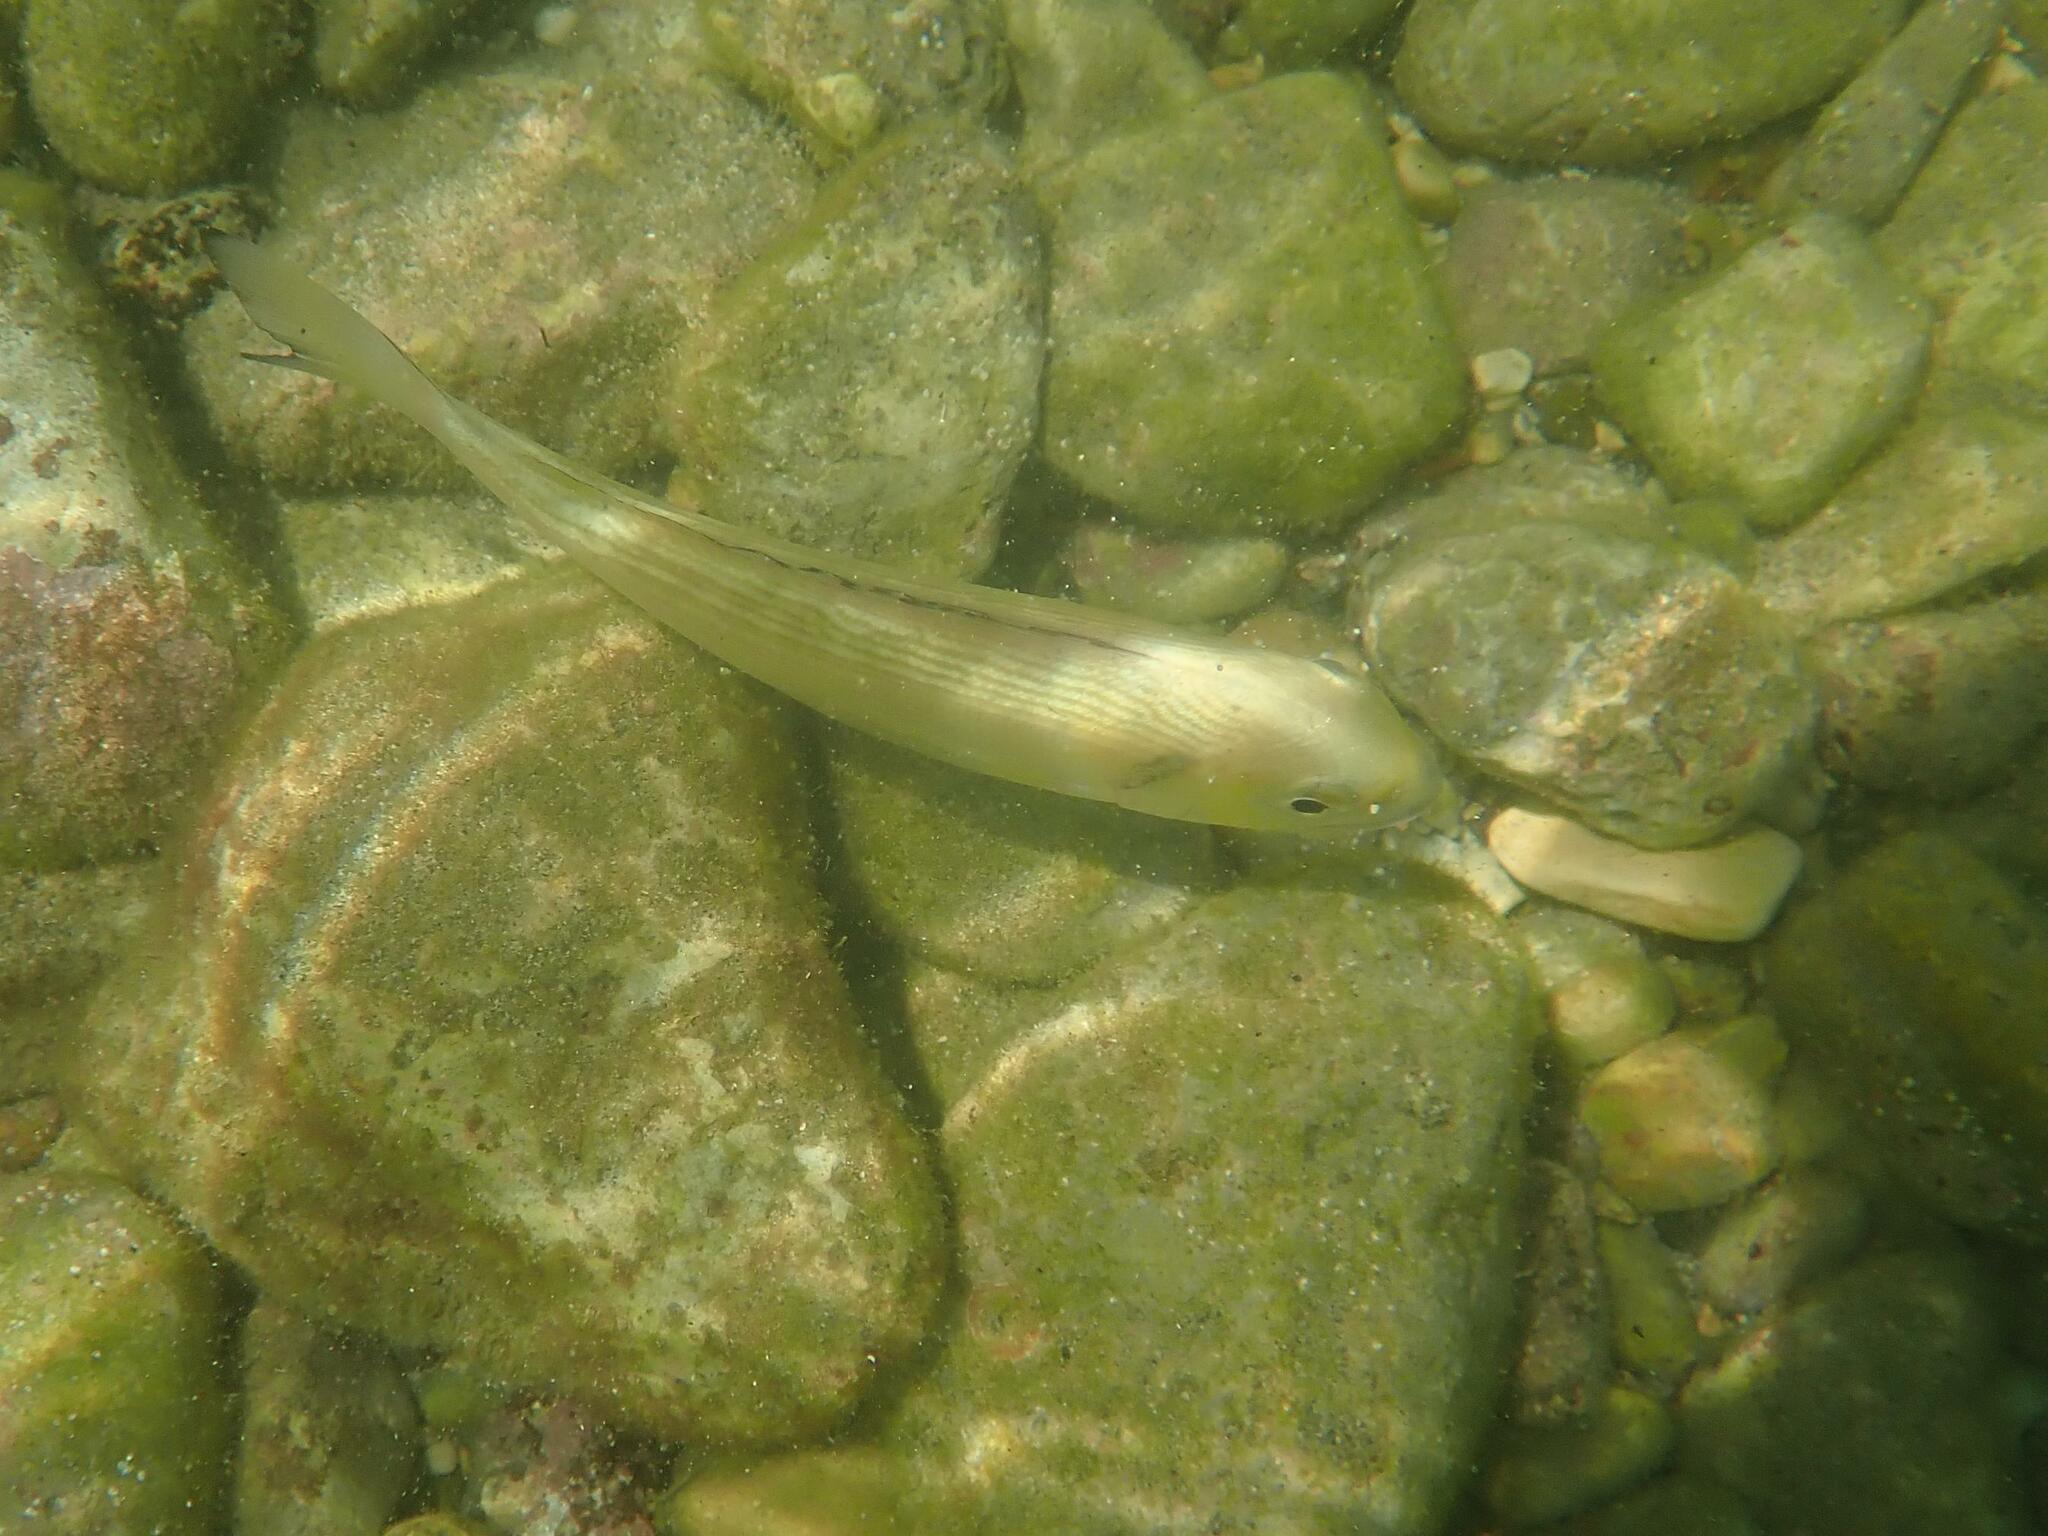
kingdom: Animalia
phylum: Chordata
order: Perciformes
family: Sparidae
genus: Sparus
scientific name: Sparus aurata
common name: Gilthead
